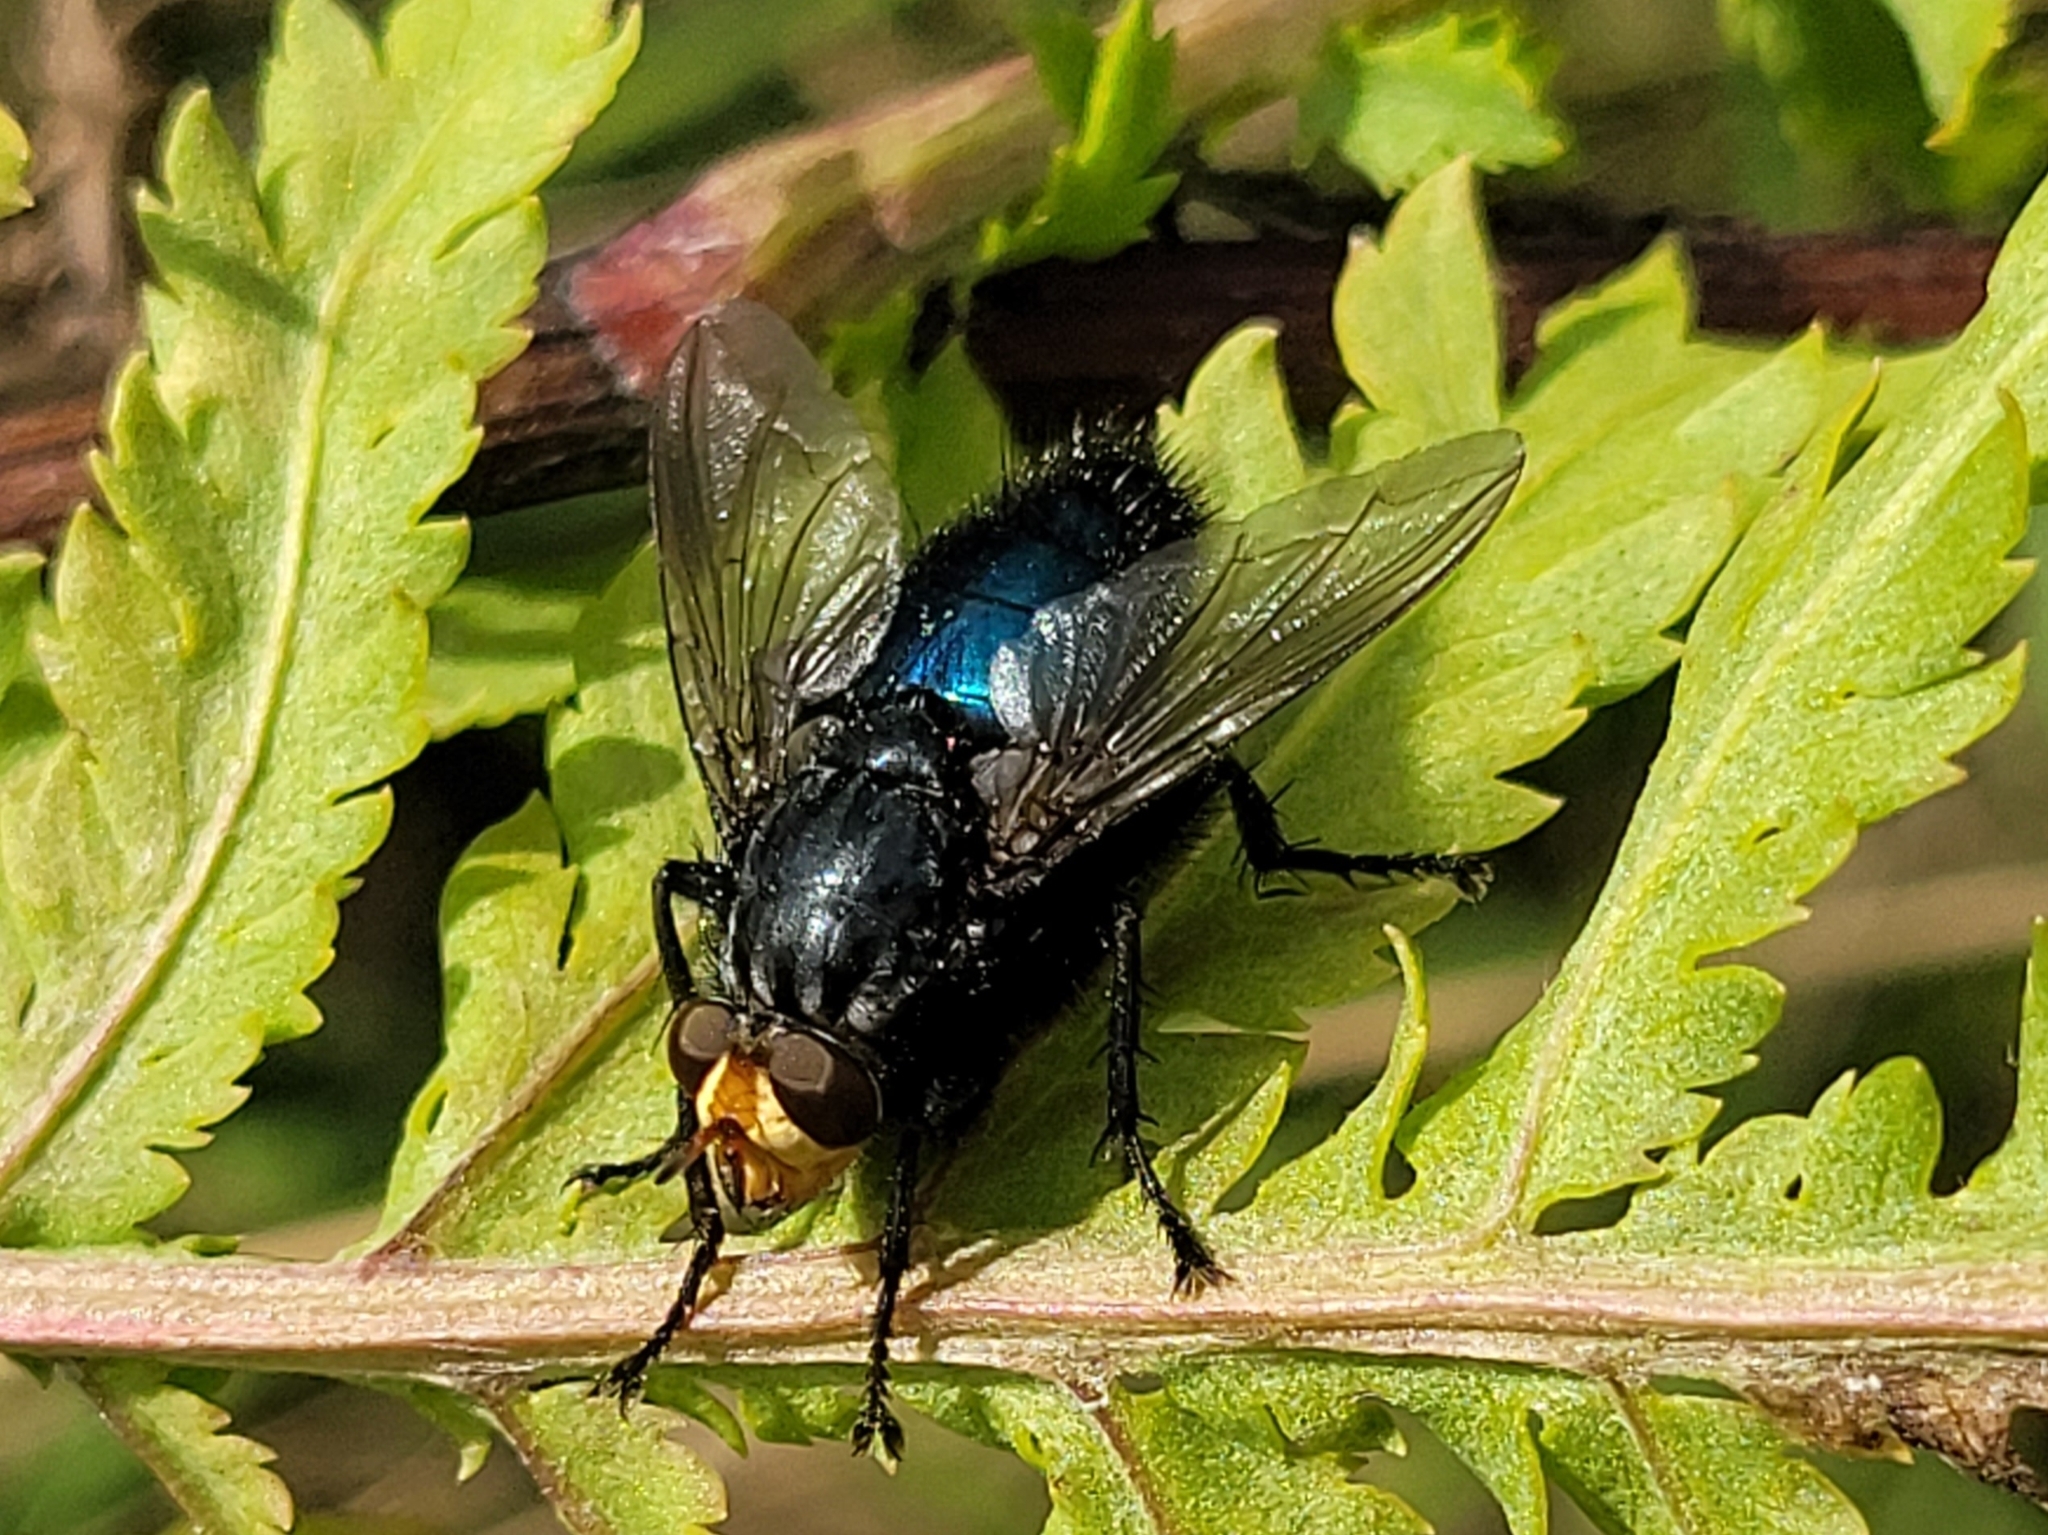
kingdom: Animalia
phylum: Arthropoda
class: Insecta
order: Diptera
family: Calliphoridae
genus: Cynomya
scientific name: Cynomya mortuorum
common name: Bluebottle blow fly
